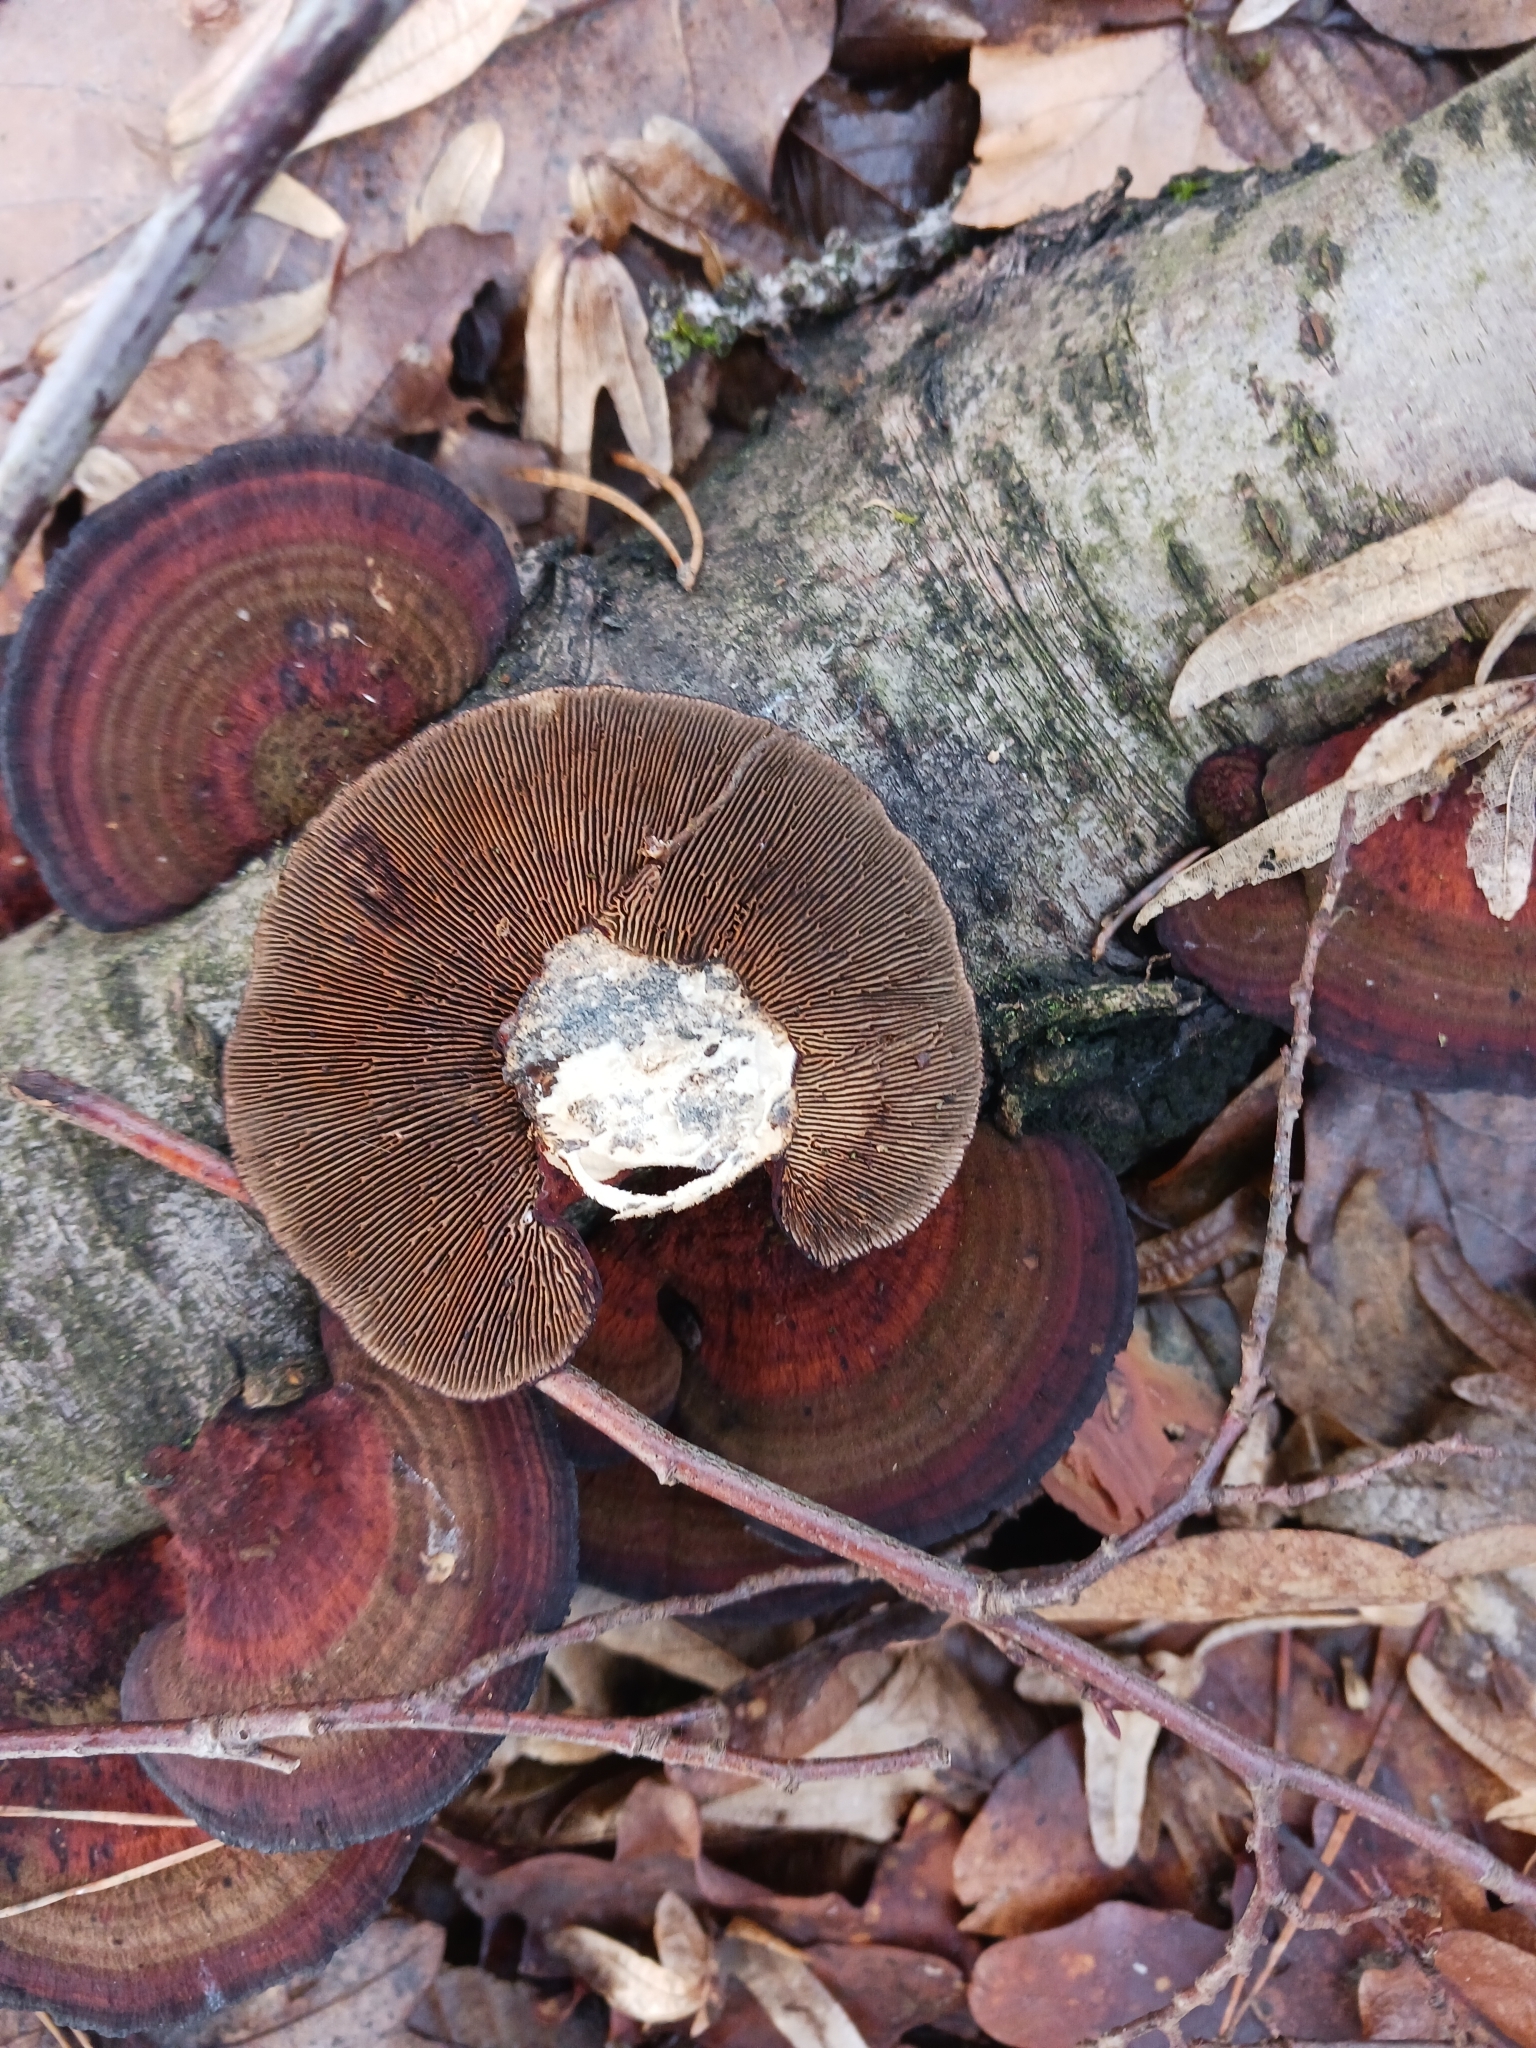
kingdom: Fungi
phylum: Basidiomycota
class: Agaricomycetes
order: Polyporales
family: Polyporaceae
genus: Daedaleopsis
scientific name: Daedaleopsis tricolor
